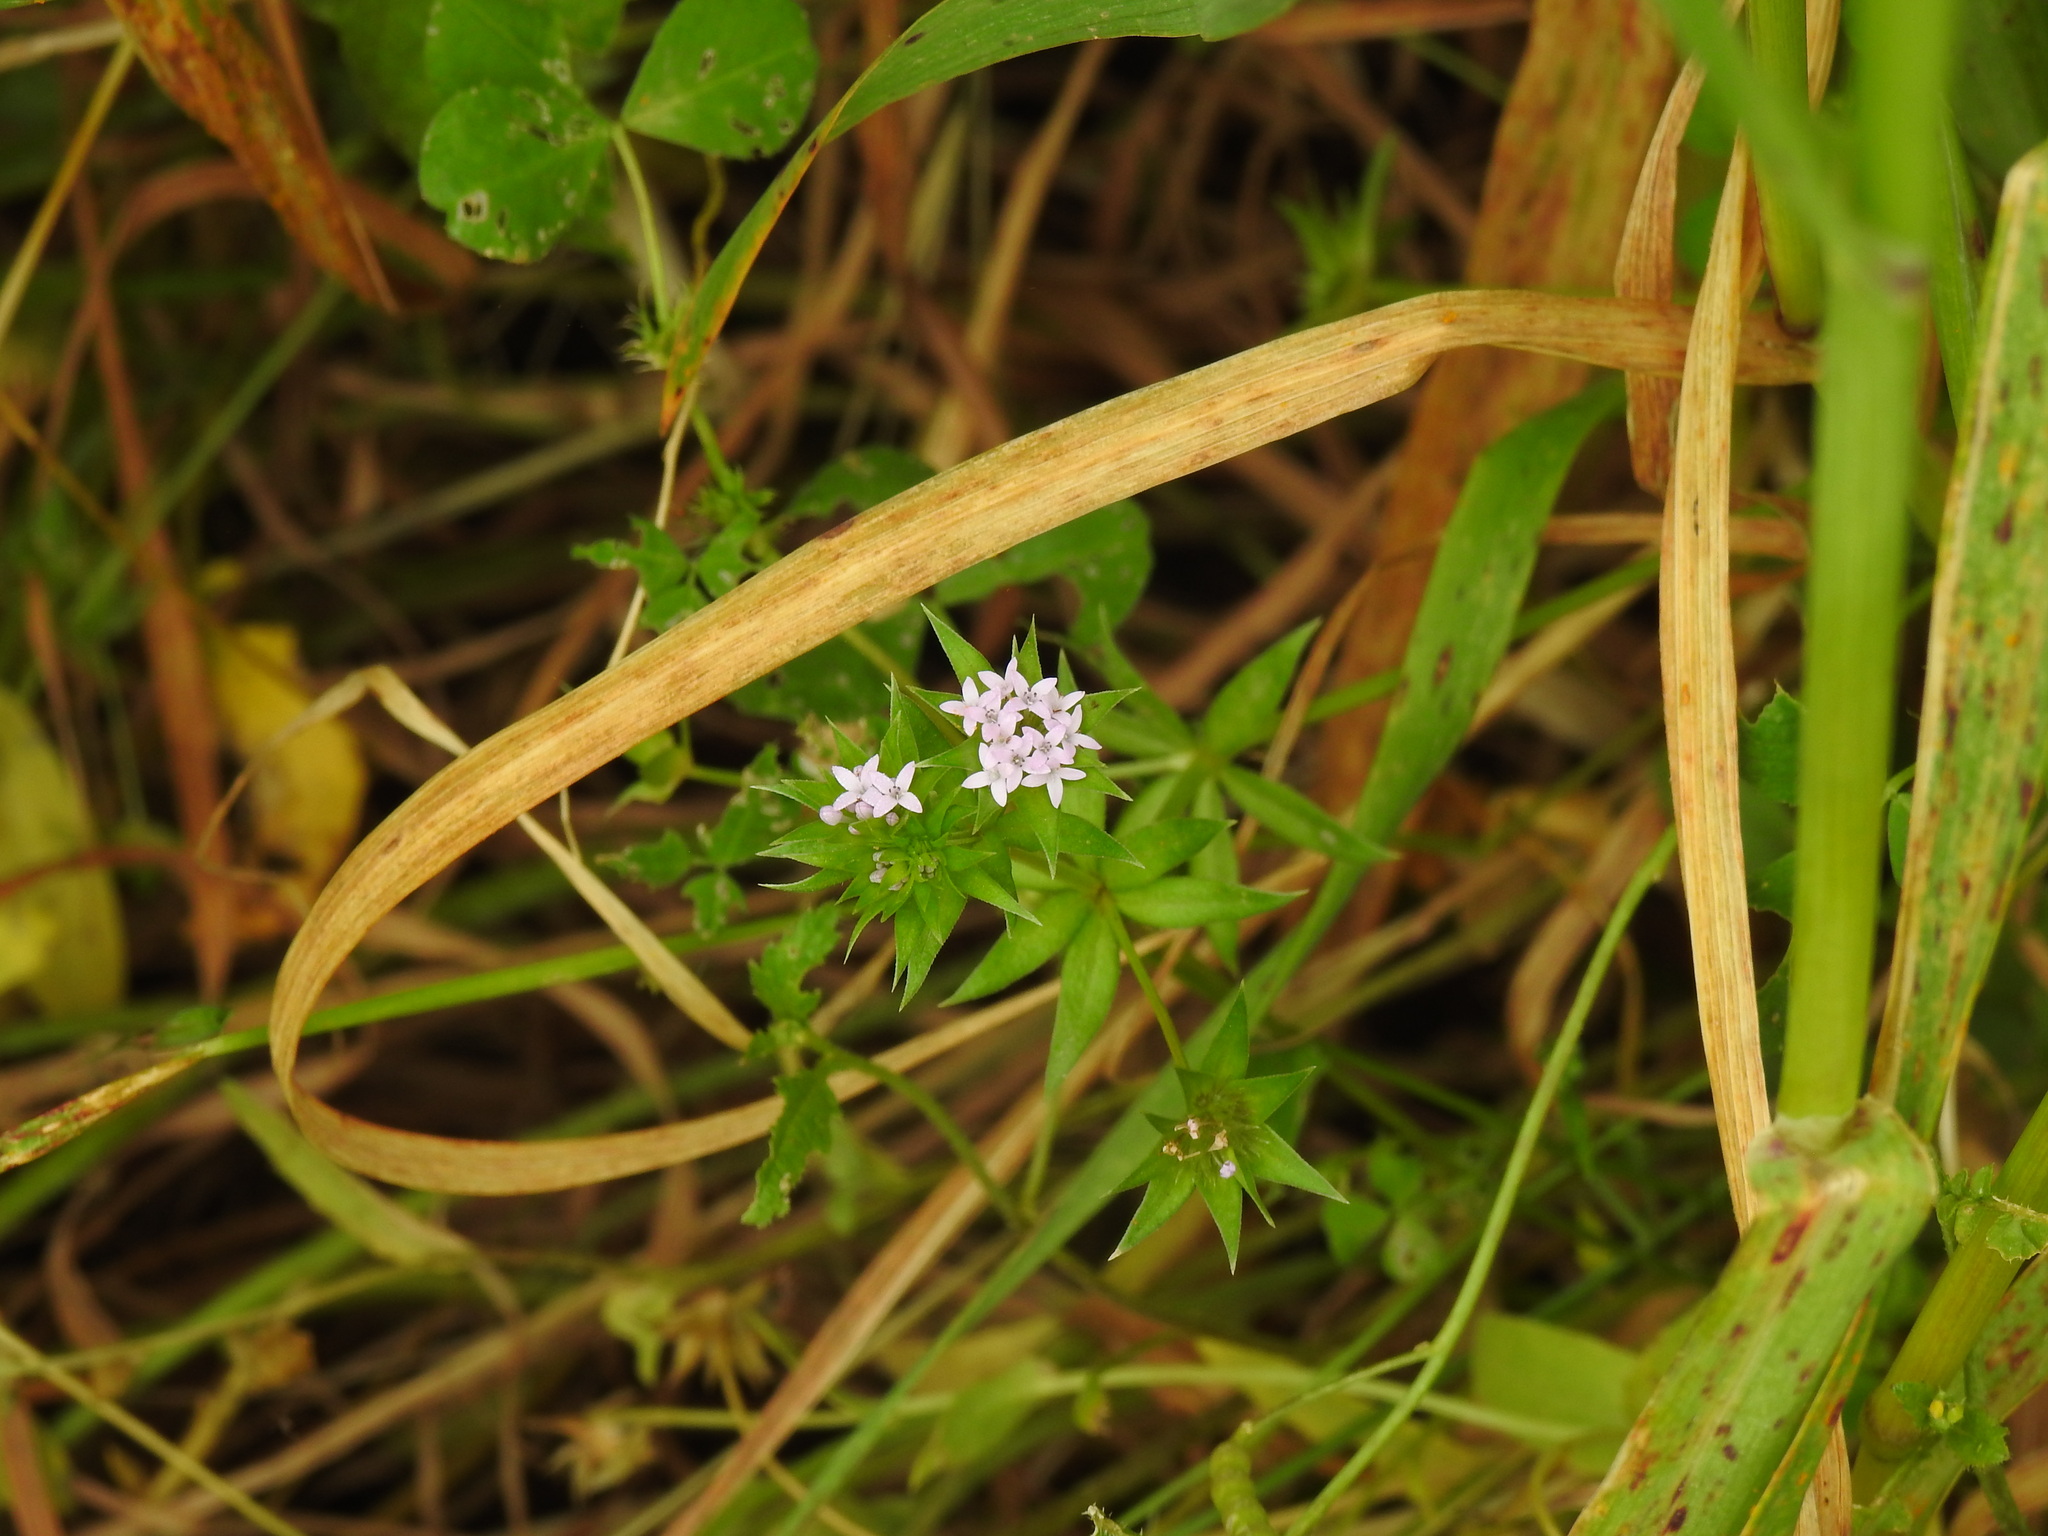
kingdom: Plantae
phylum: Tracheophyta
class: Magnoliopsida
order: Gentianales
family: Rubiaceae
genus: Sherardia
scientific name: Sherardia arvensis
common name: Field madder
